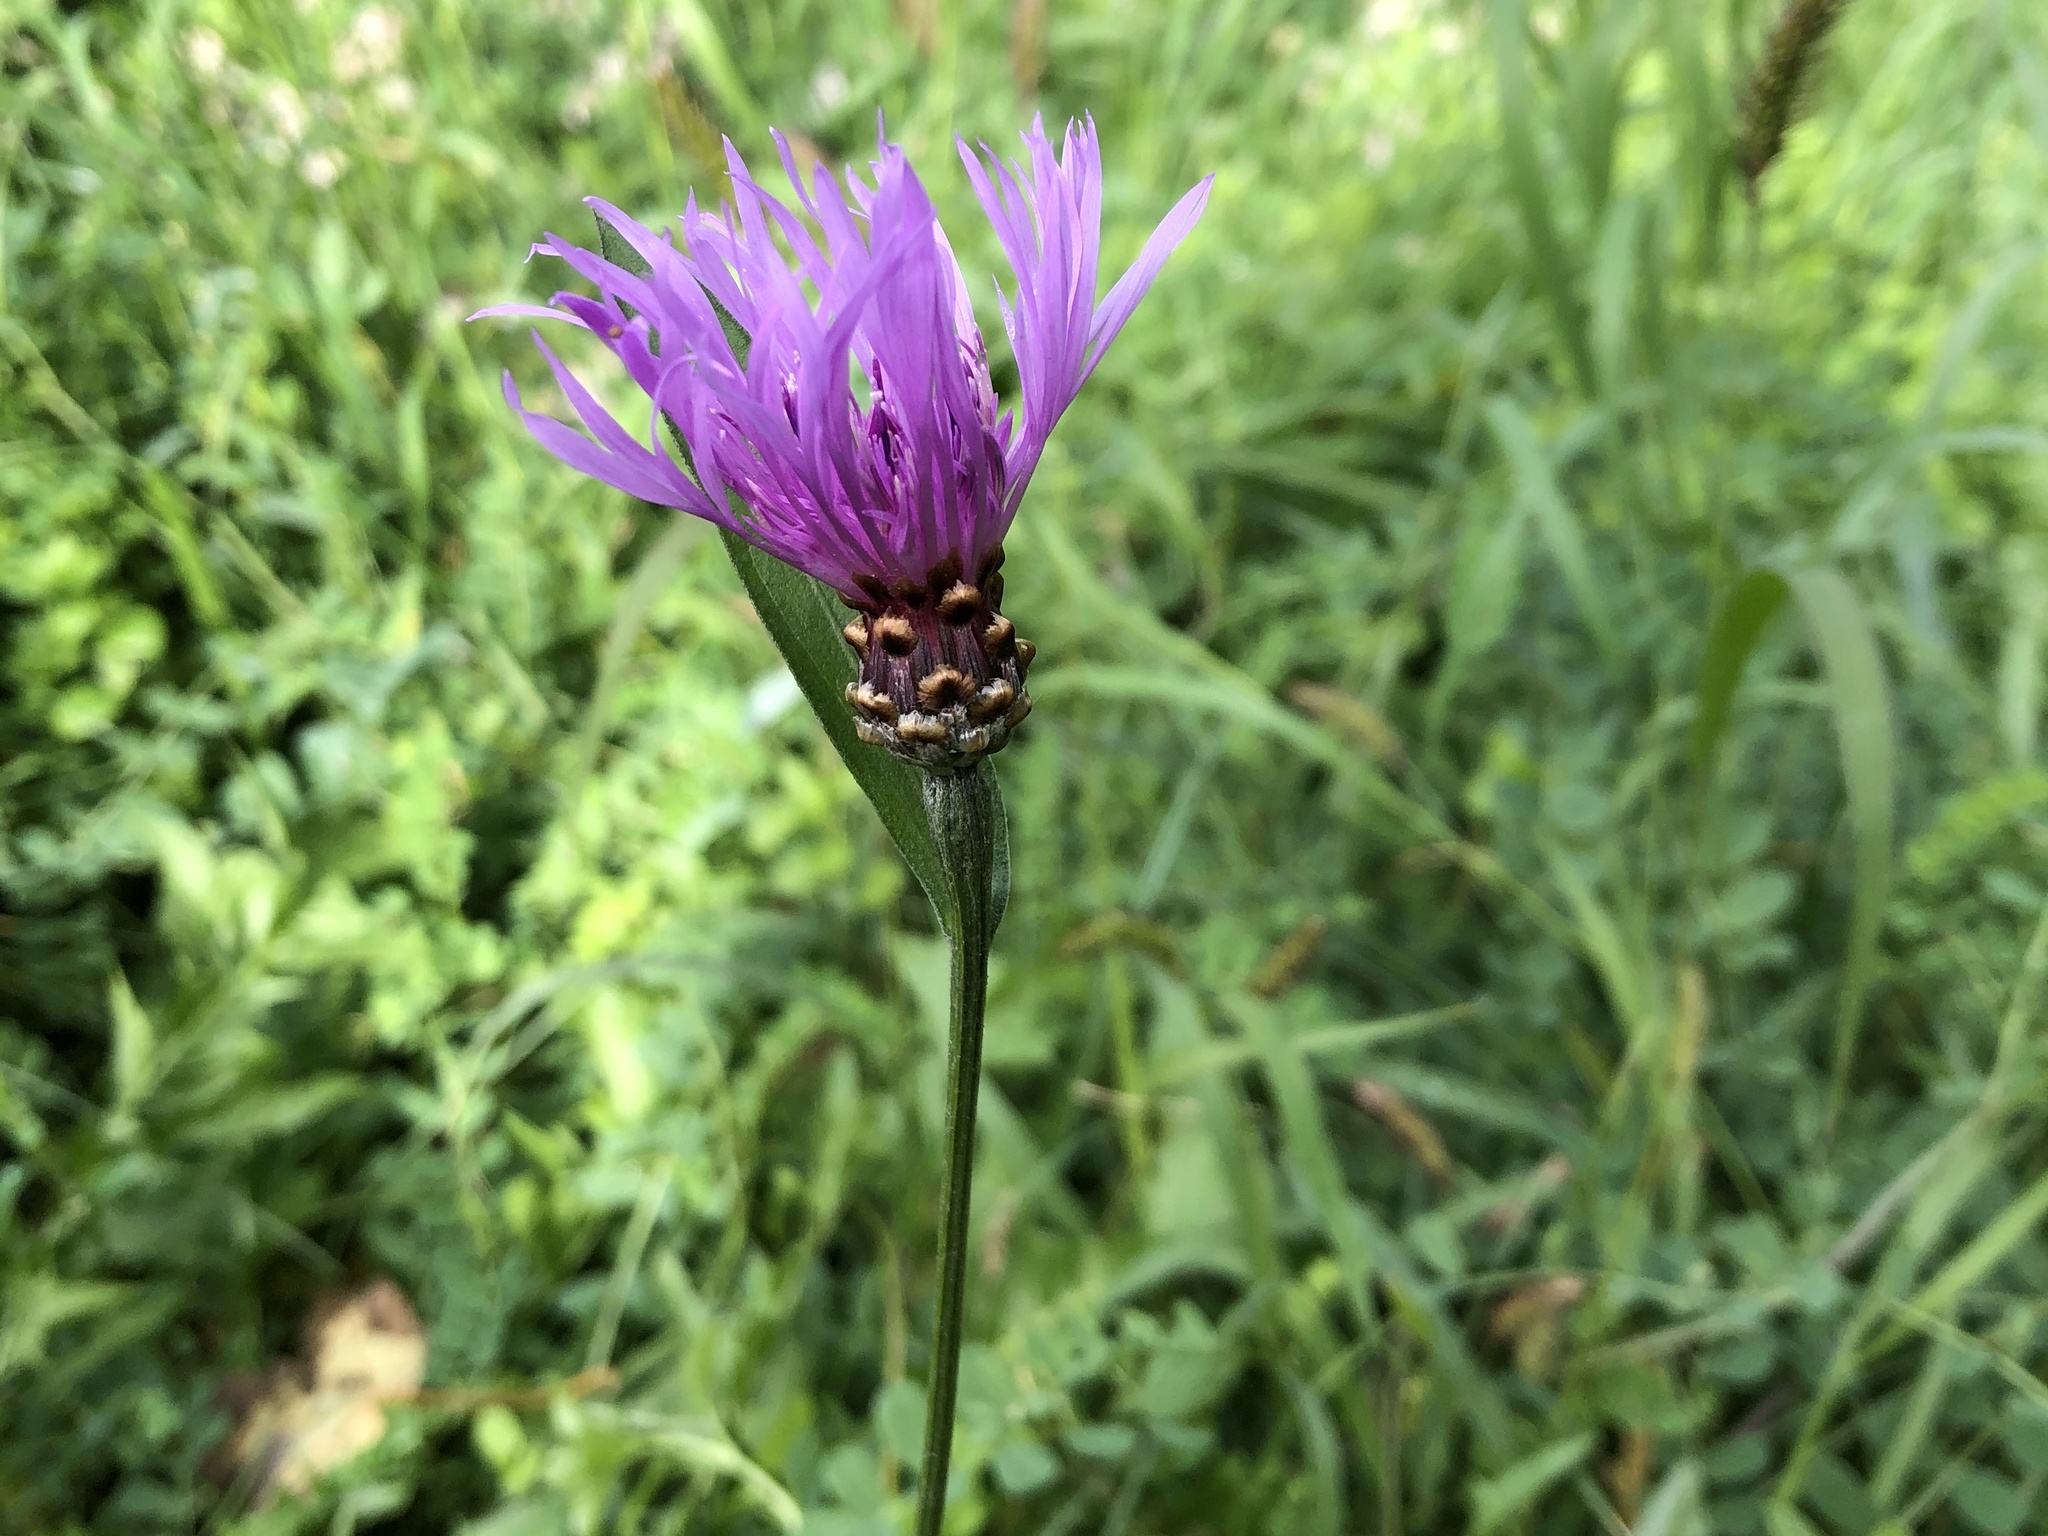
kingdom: Plantae
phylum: Tracheophyta
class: Magnoliopsida
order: Asterales
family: Asteraceae
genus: Centaurea
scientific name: Centaurea jacea
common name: Brown knapweed
